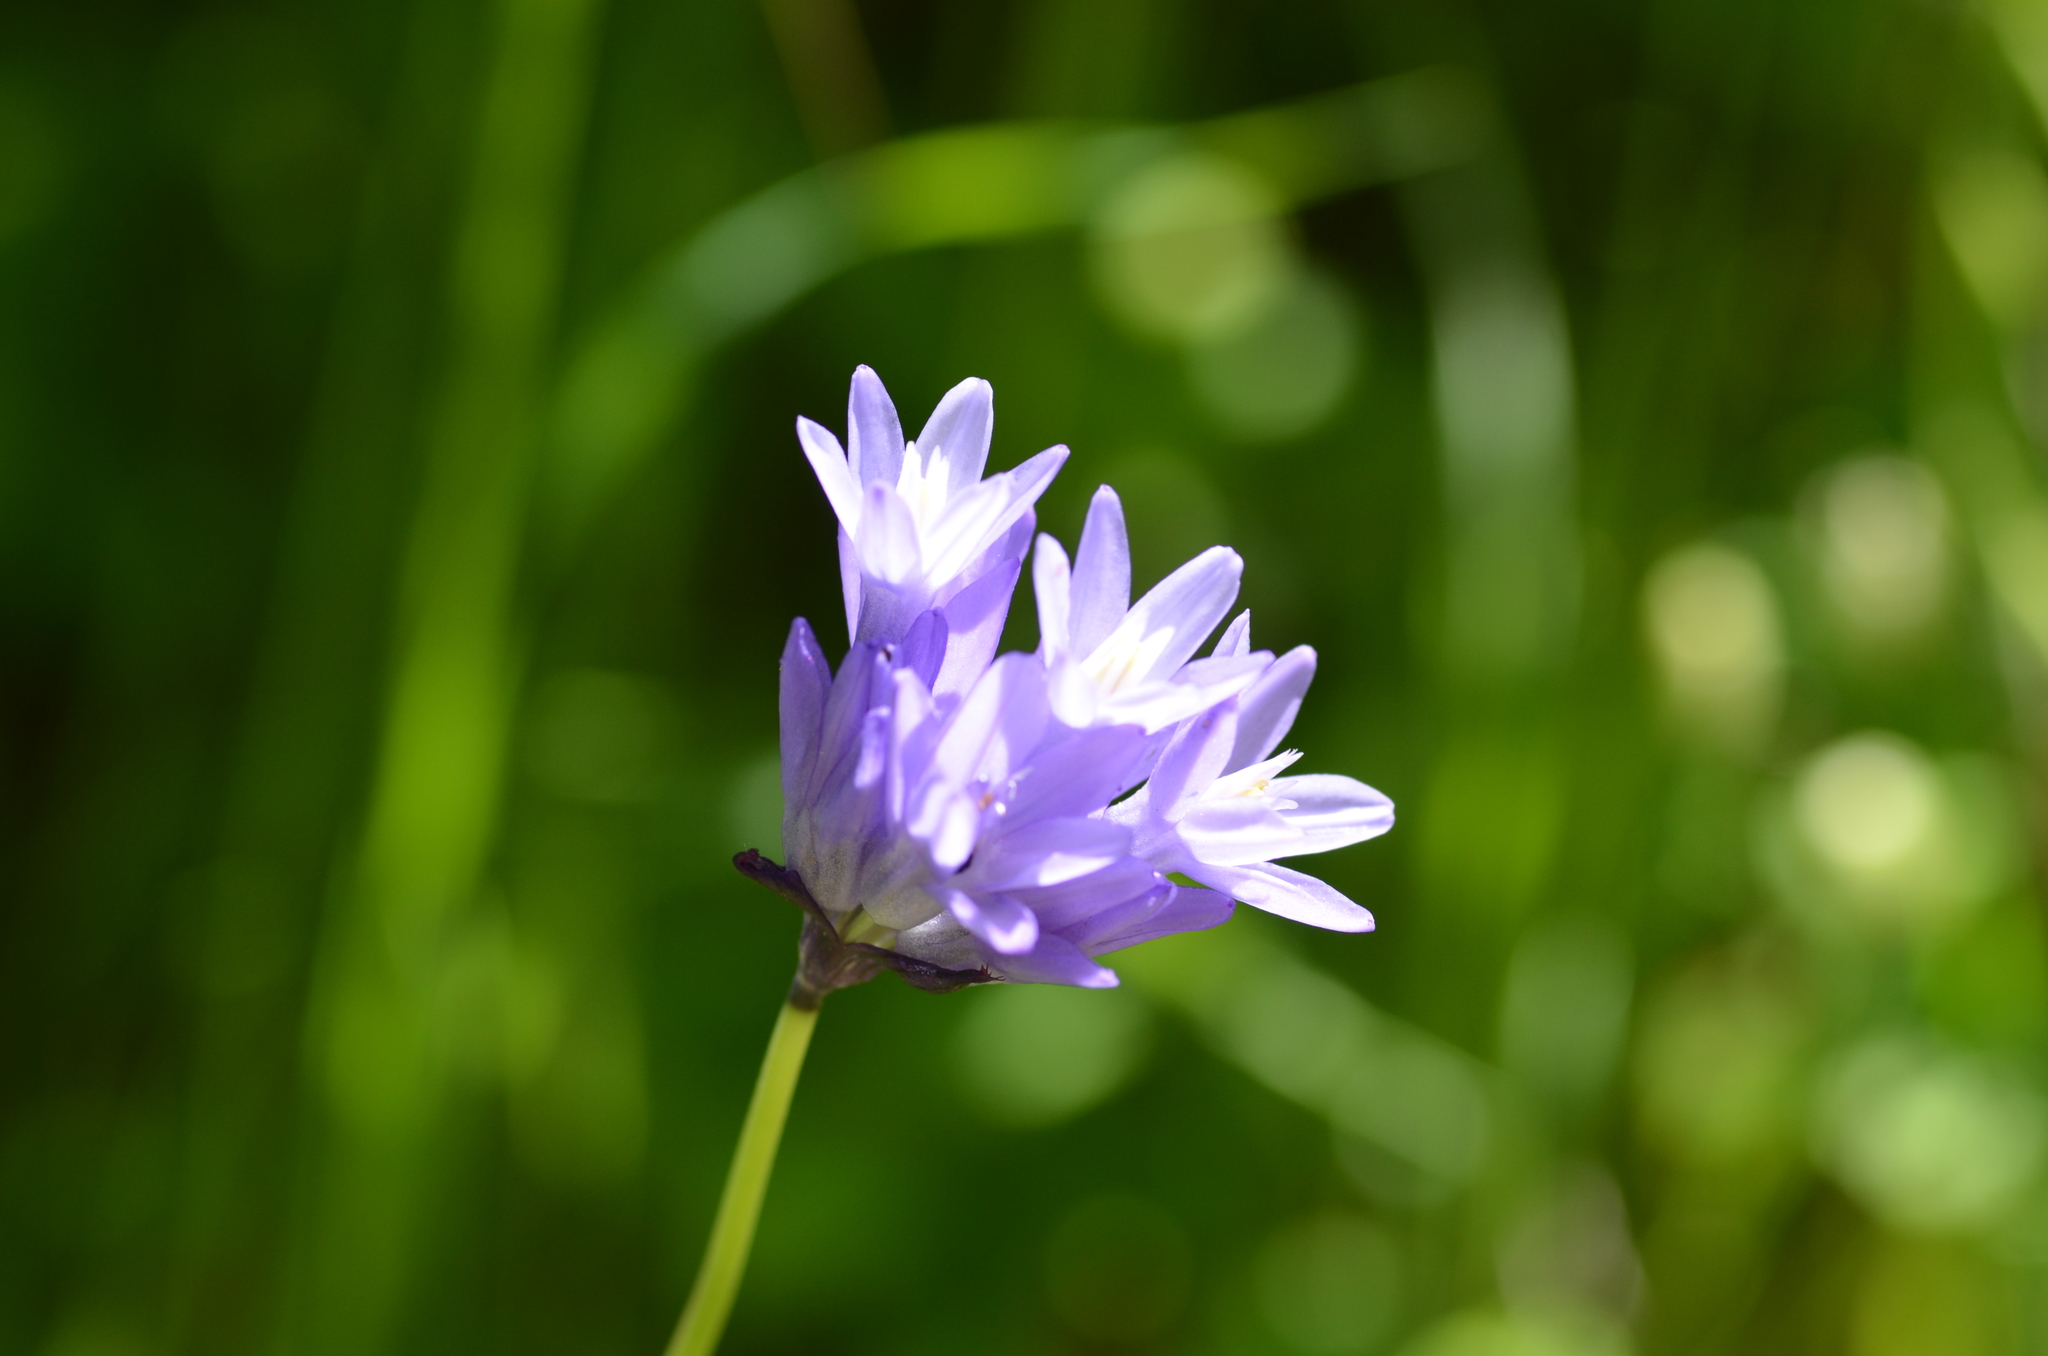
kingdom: Plantae
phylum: Tracheophyta
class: Liliopsida
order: Asparagales
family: Asparagaceae
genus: Dipterostemon
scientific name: Dipterostemon capitatus
